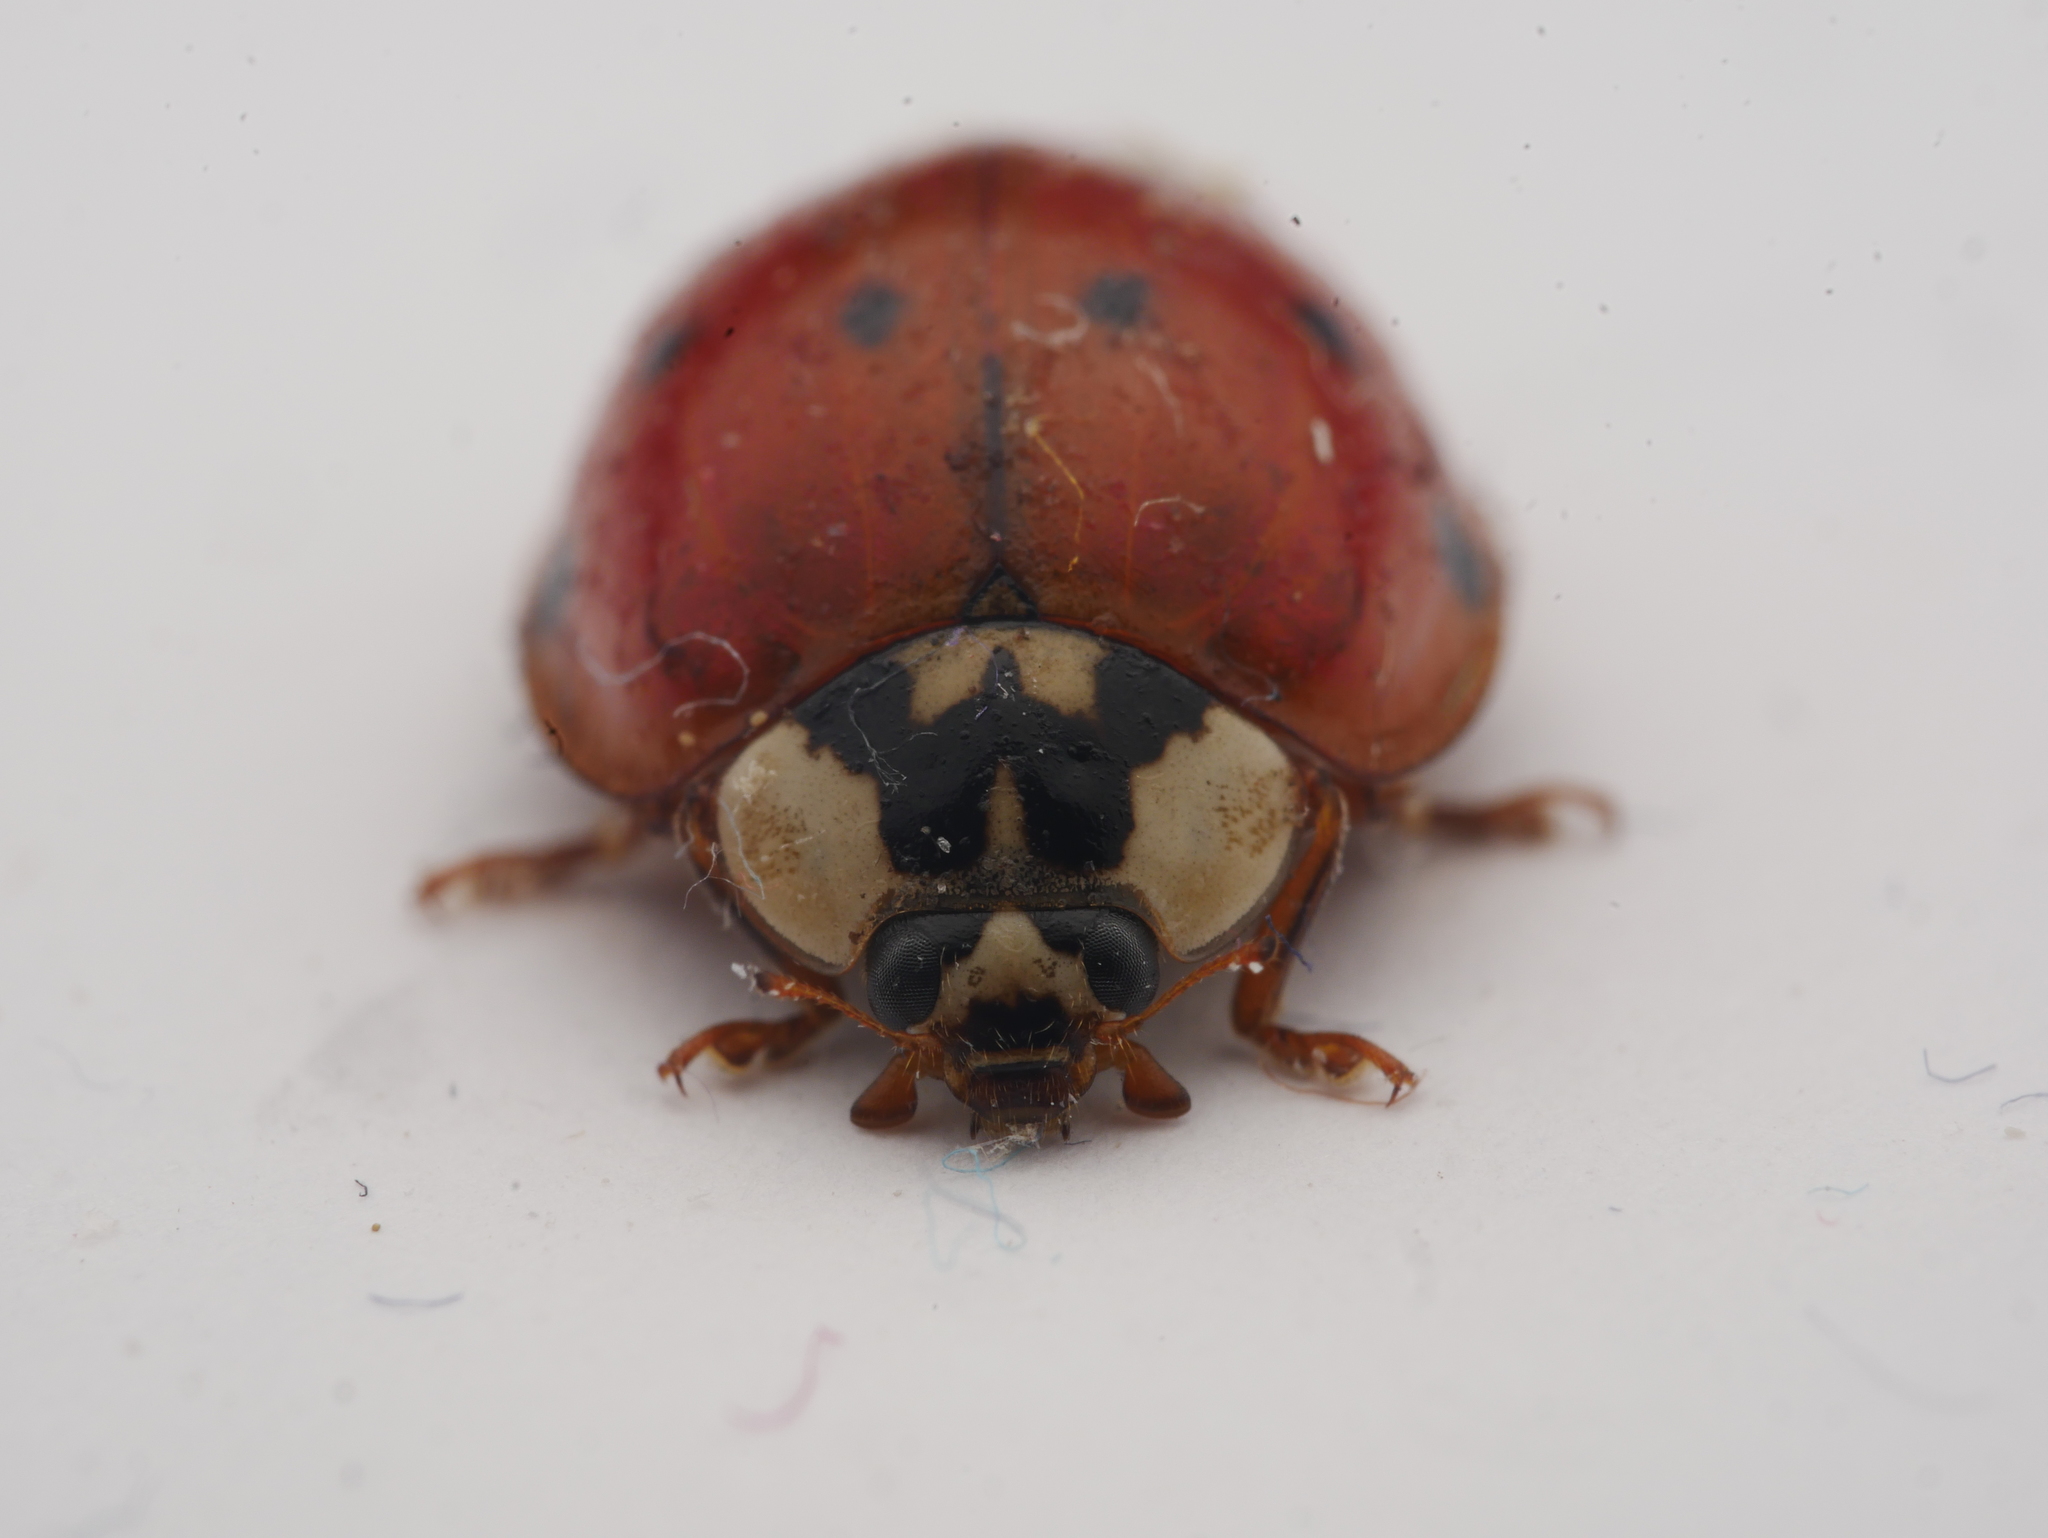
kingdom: Animalia
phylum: Arthropoda
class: Insecta
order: Coleoptera
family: Coccinellidae
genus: Harmonia
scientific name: Harmonia axyridis
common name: Harlequin ladybird
